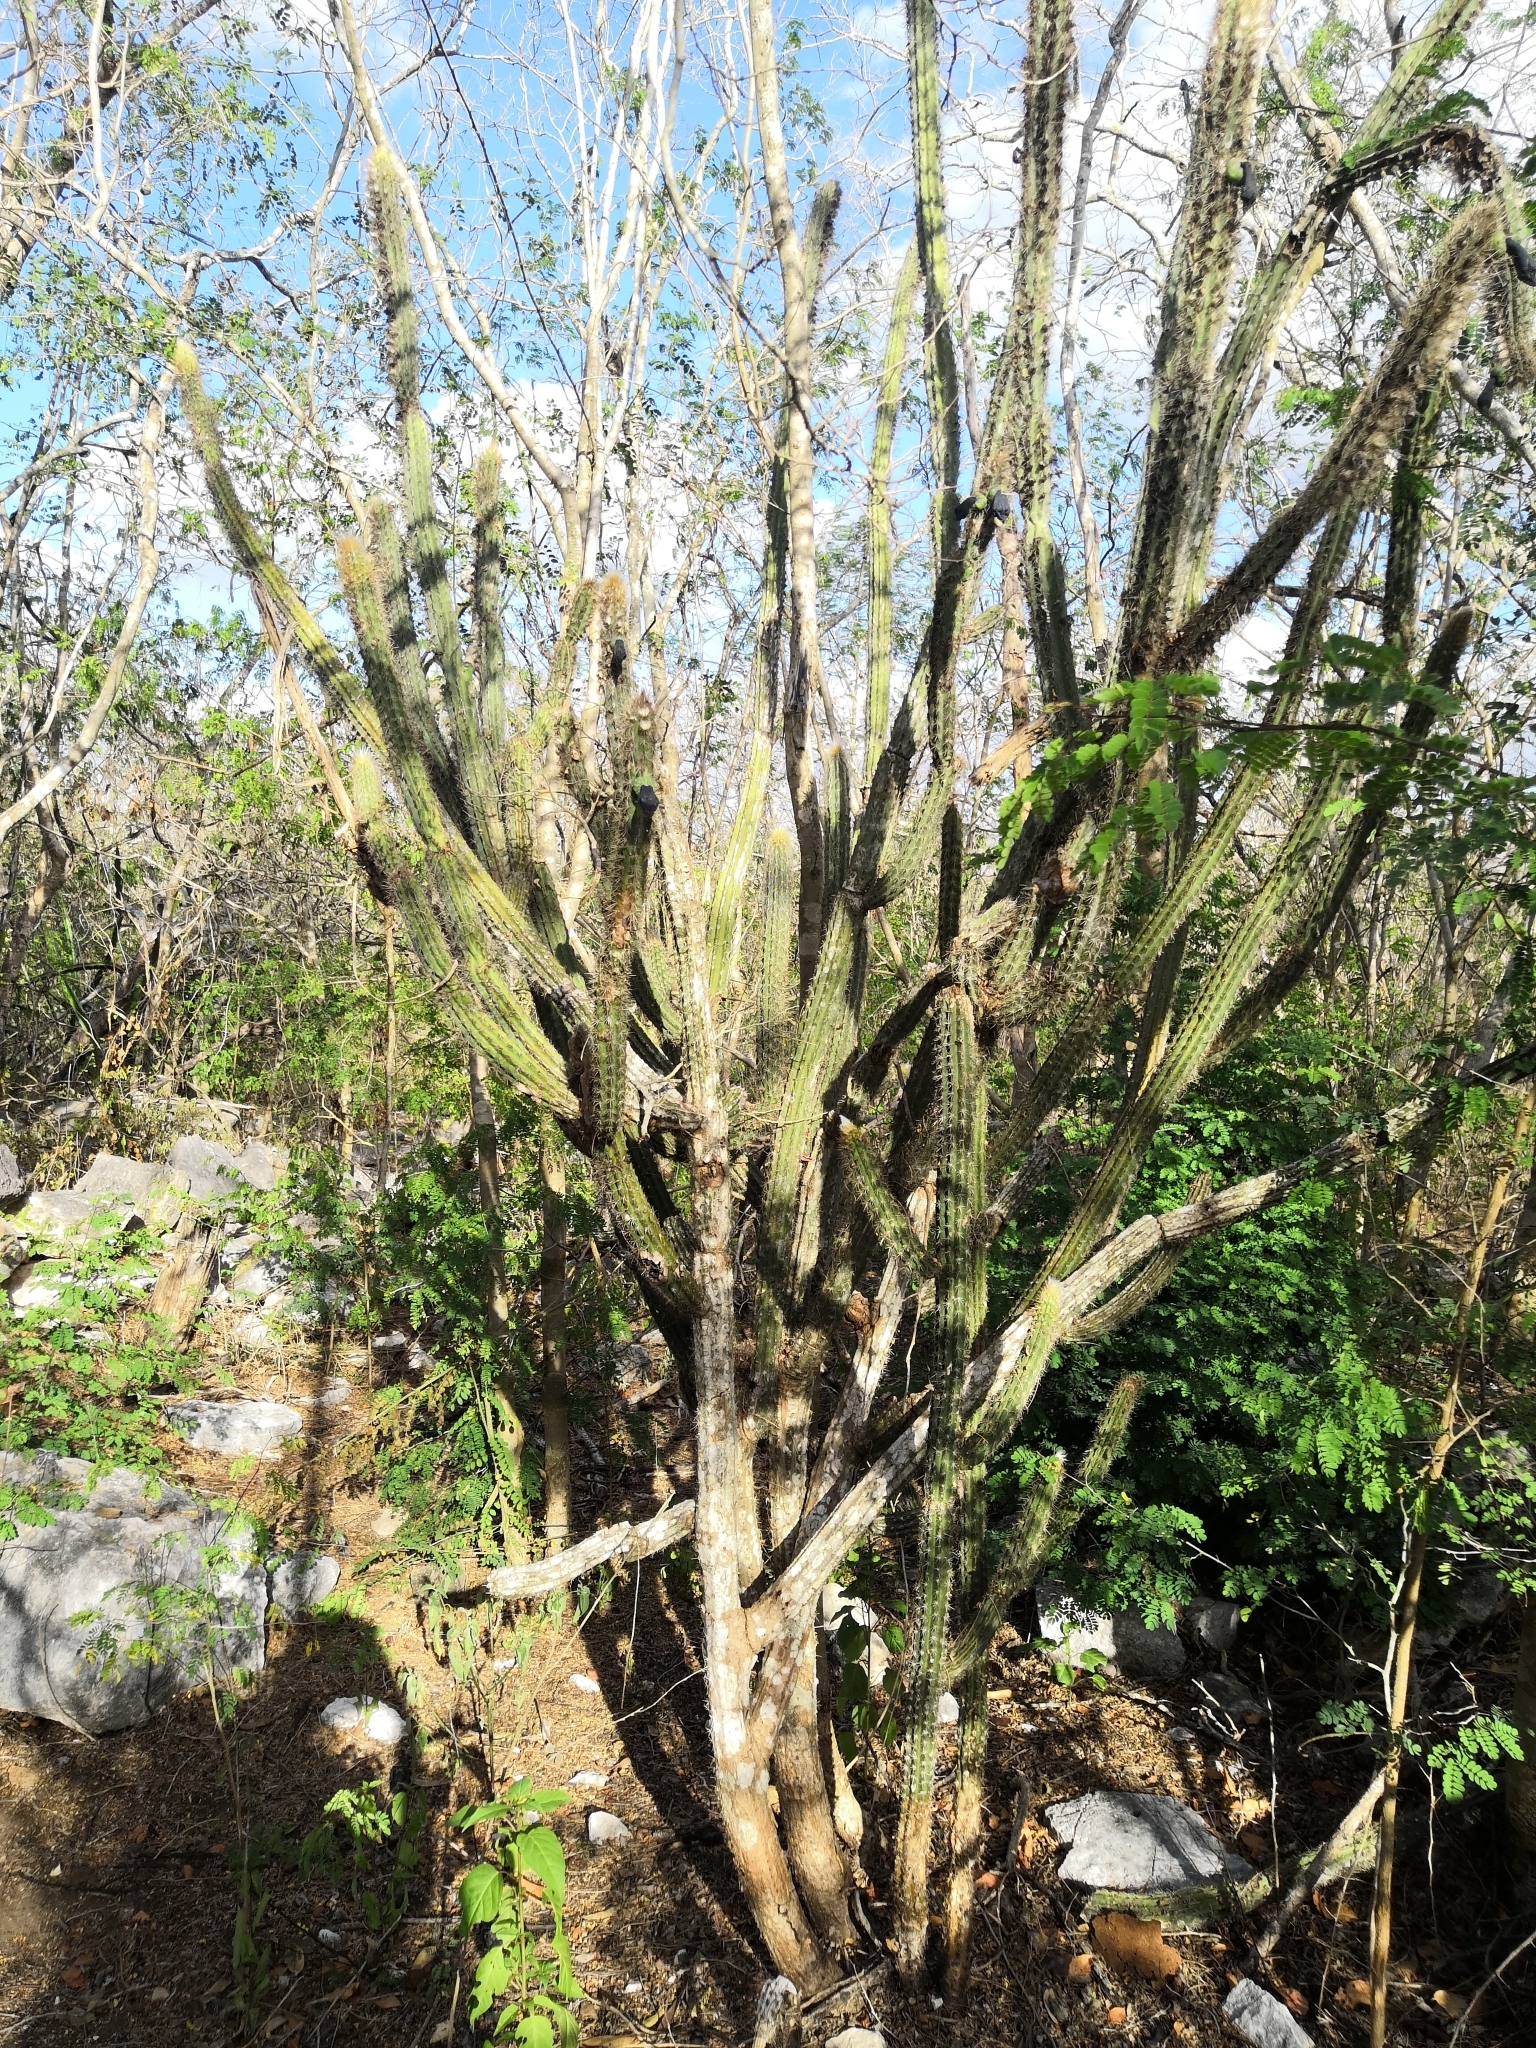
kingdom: Plantae
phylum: Tracheophyta
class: Magnoliopsida
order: Caryophyllales
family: Cactaceae
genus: Pilosocereus
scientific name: Pilosocereus gaumeri
